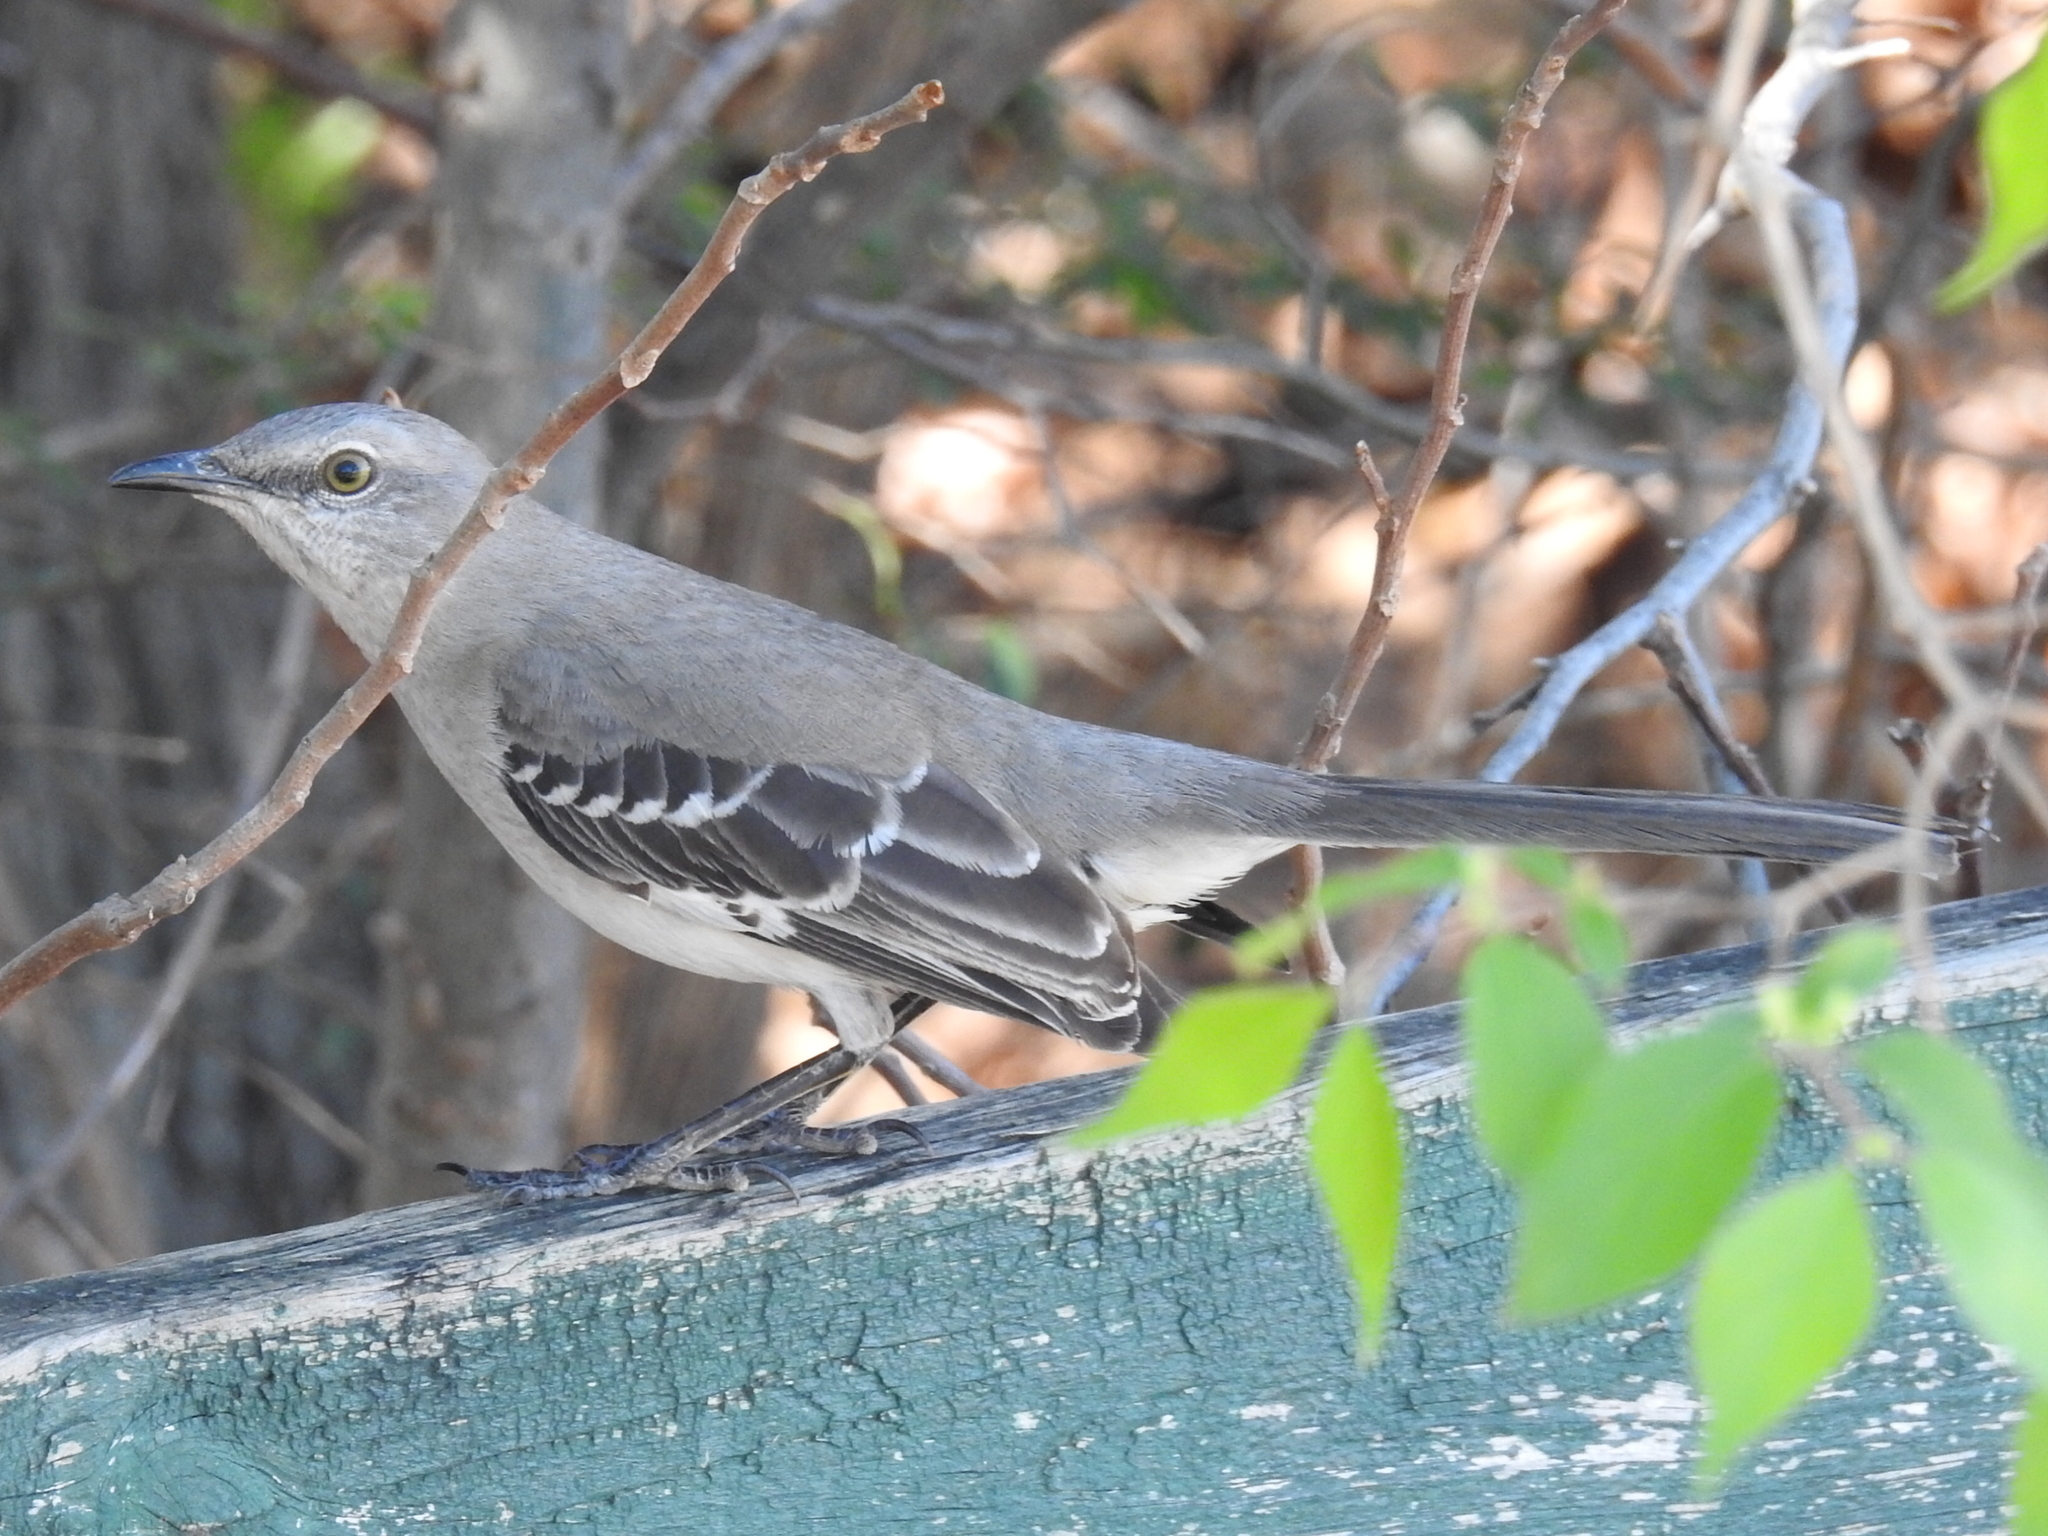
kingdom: Animalia
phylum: Chordata
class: Aves
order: Passeriformes
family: Mimidae
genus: Mimus
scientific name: Mimus polyglottos
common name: Northern mockingbird
